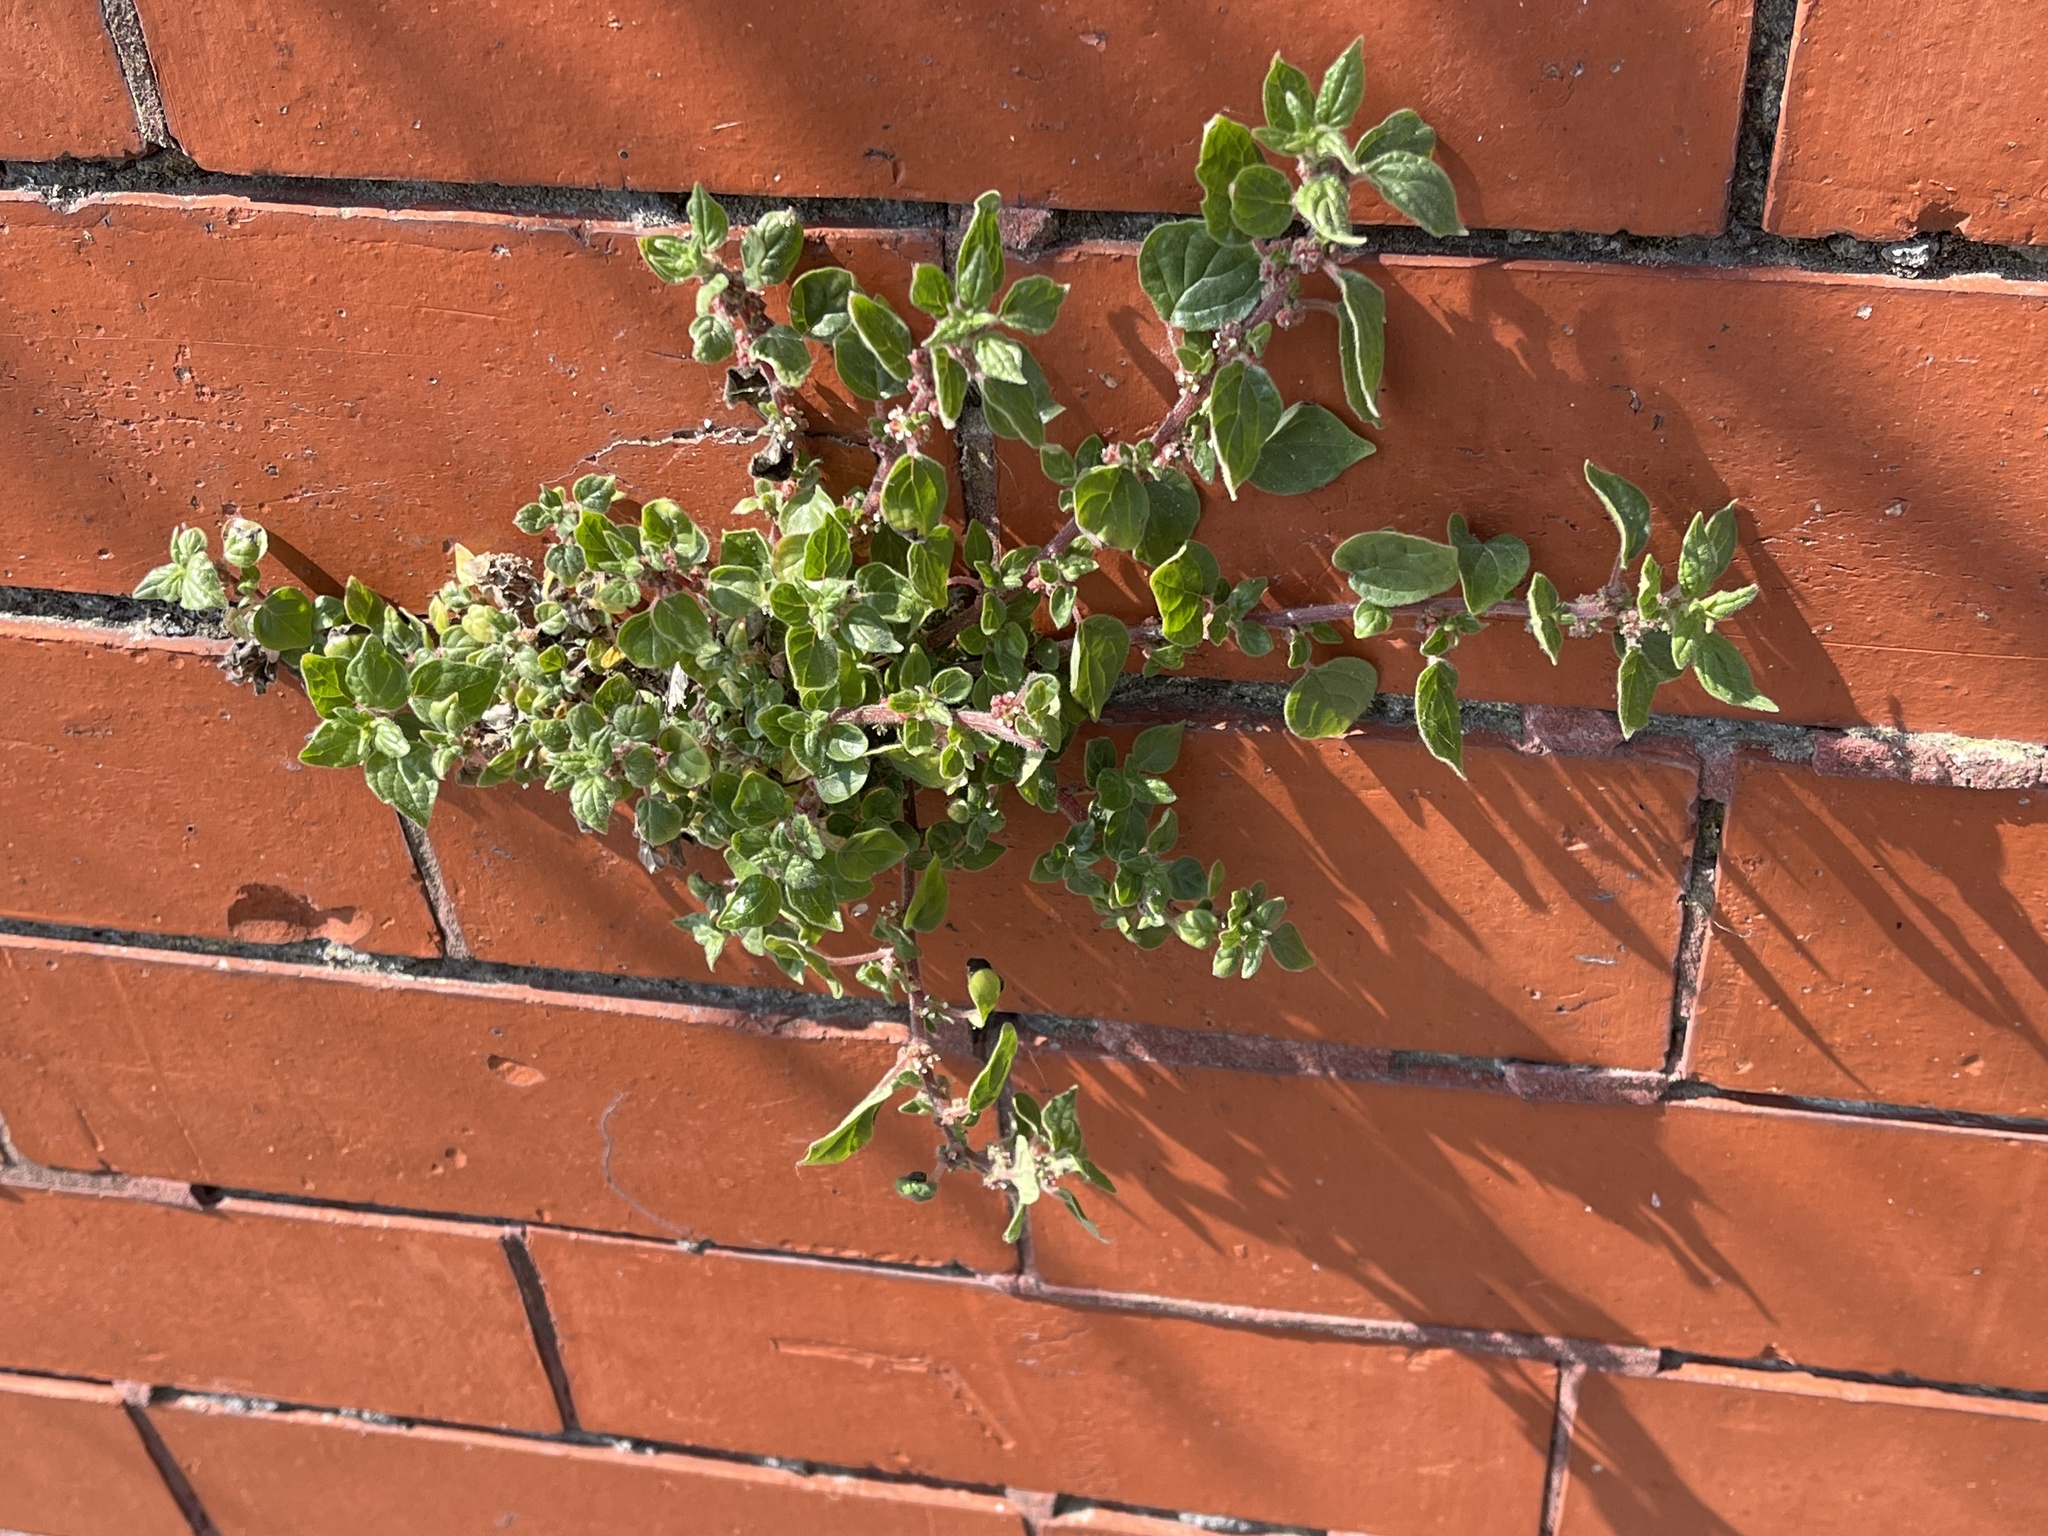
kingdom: Plantae
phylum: Tracheophyta
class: Magnoliopsida
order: Rosales
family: Urticaceae
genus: Parietaria
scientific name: Parietaria judaica
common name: Pellitory-of-the-wall
